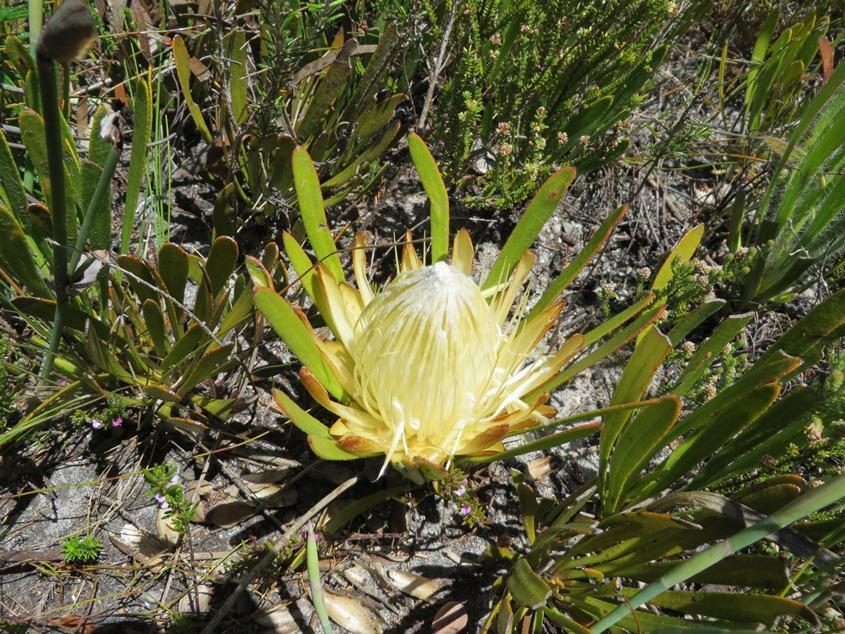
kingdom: Plantae
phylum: Tracheophyta
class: Magnoliopsida
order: Proteales
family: Proteaceae
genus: Protea
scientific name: Protea aspera
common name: Rough-leaf sugarbush
